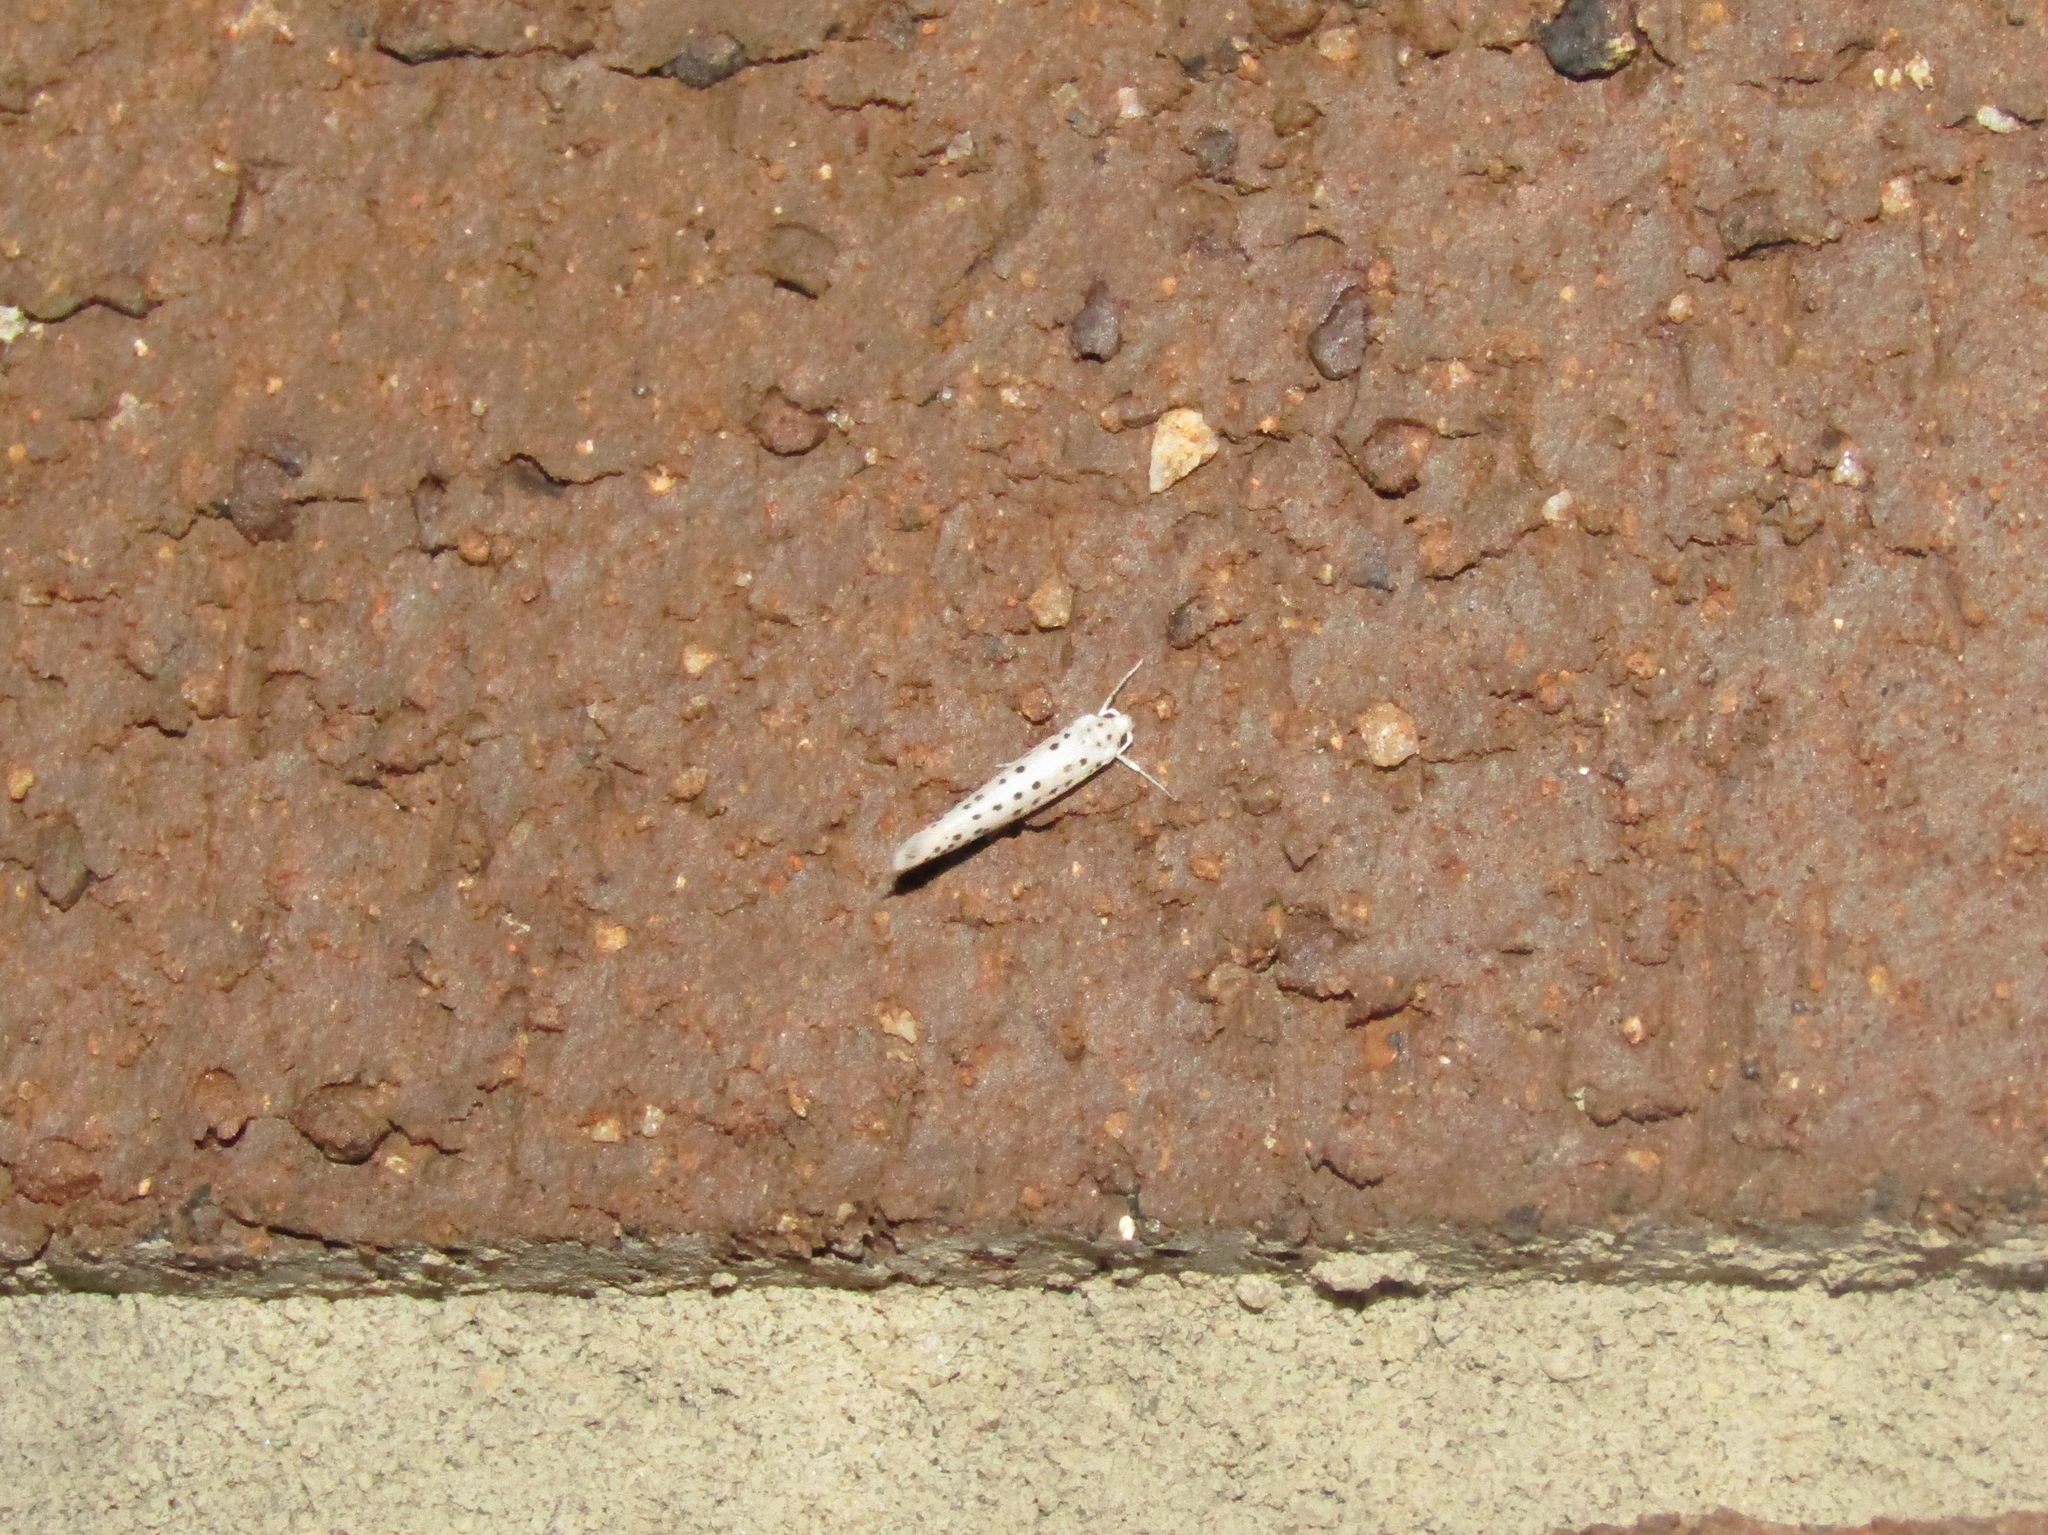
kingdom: Animalia
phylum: Arthropoda
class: Insecta
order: Lepidoptera
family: Yponomeutidae
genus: Yponomeuta
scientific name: Yponomeuta multipunctella
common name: American ermine moth
